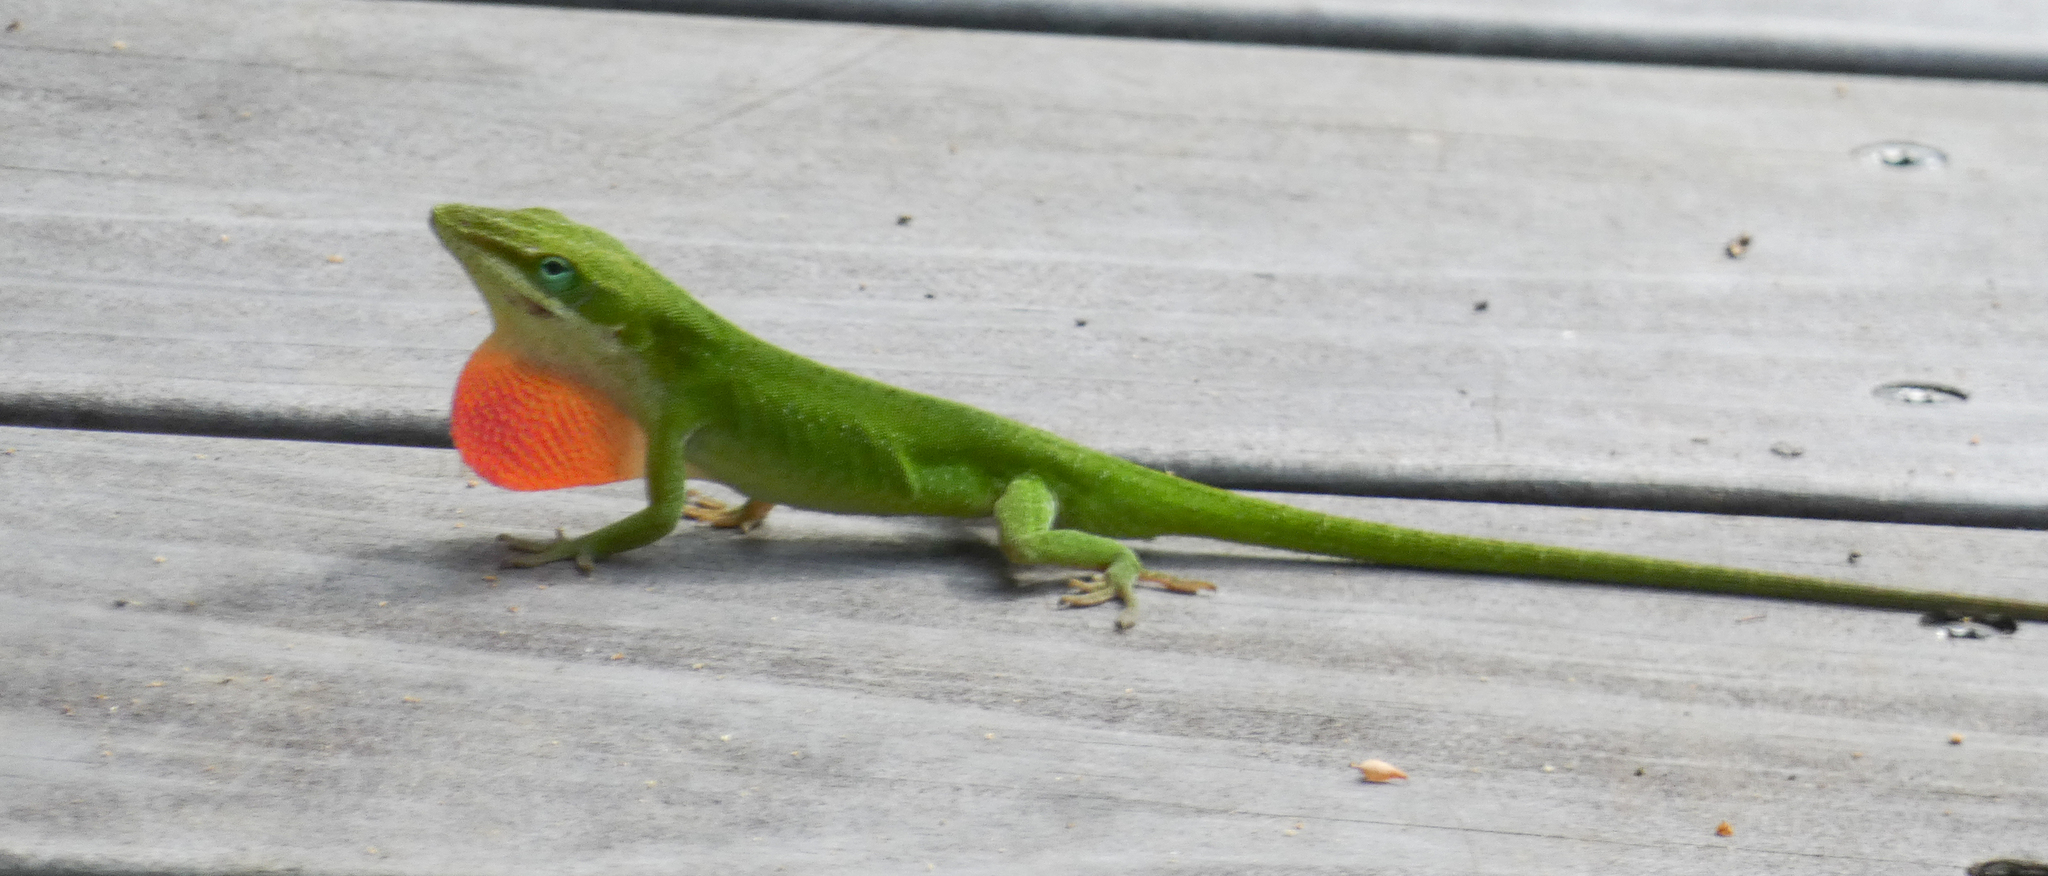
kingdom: Animalia
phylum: Chordata
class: Squamata
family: Dactyloidae
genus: Anolis
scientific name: Anolis carolinensis
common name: Green anole
